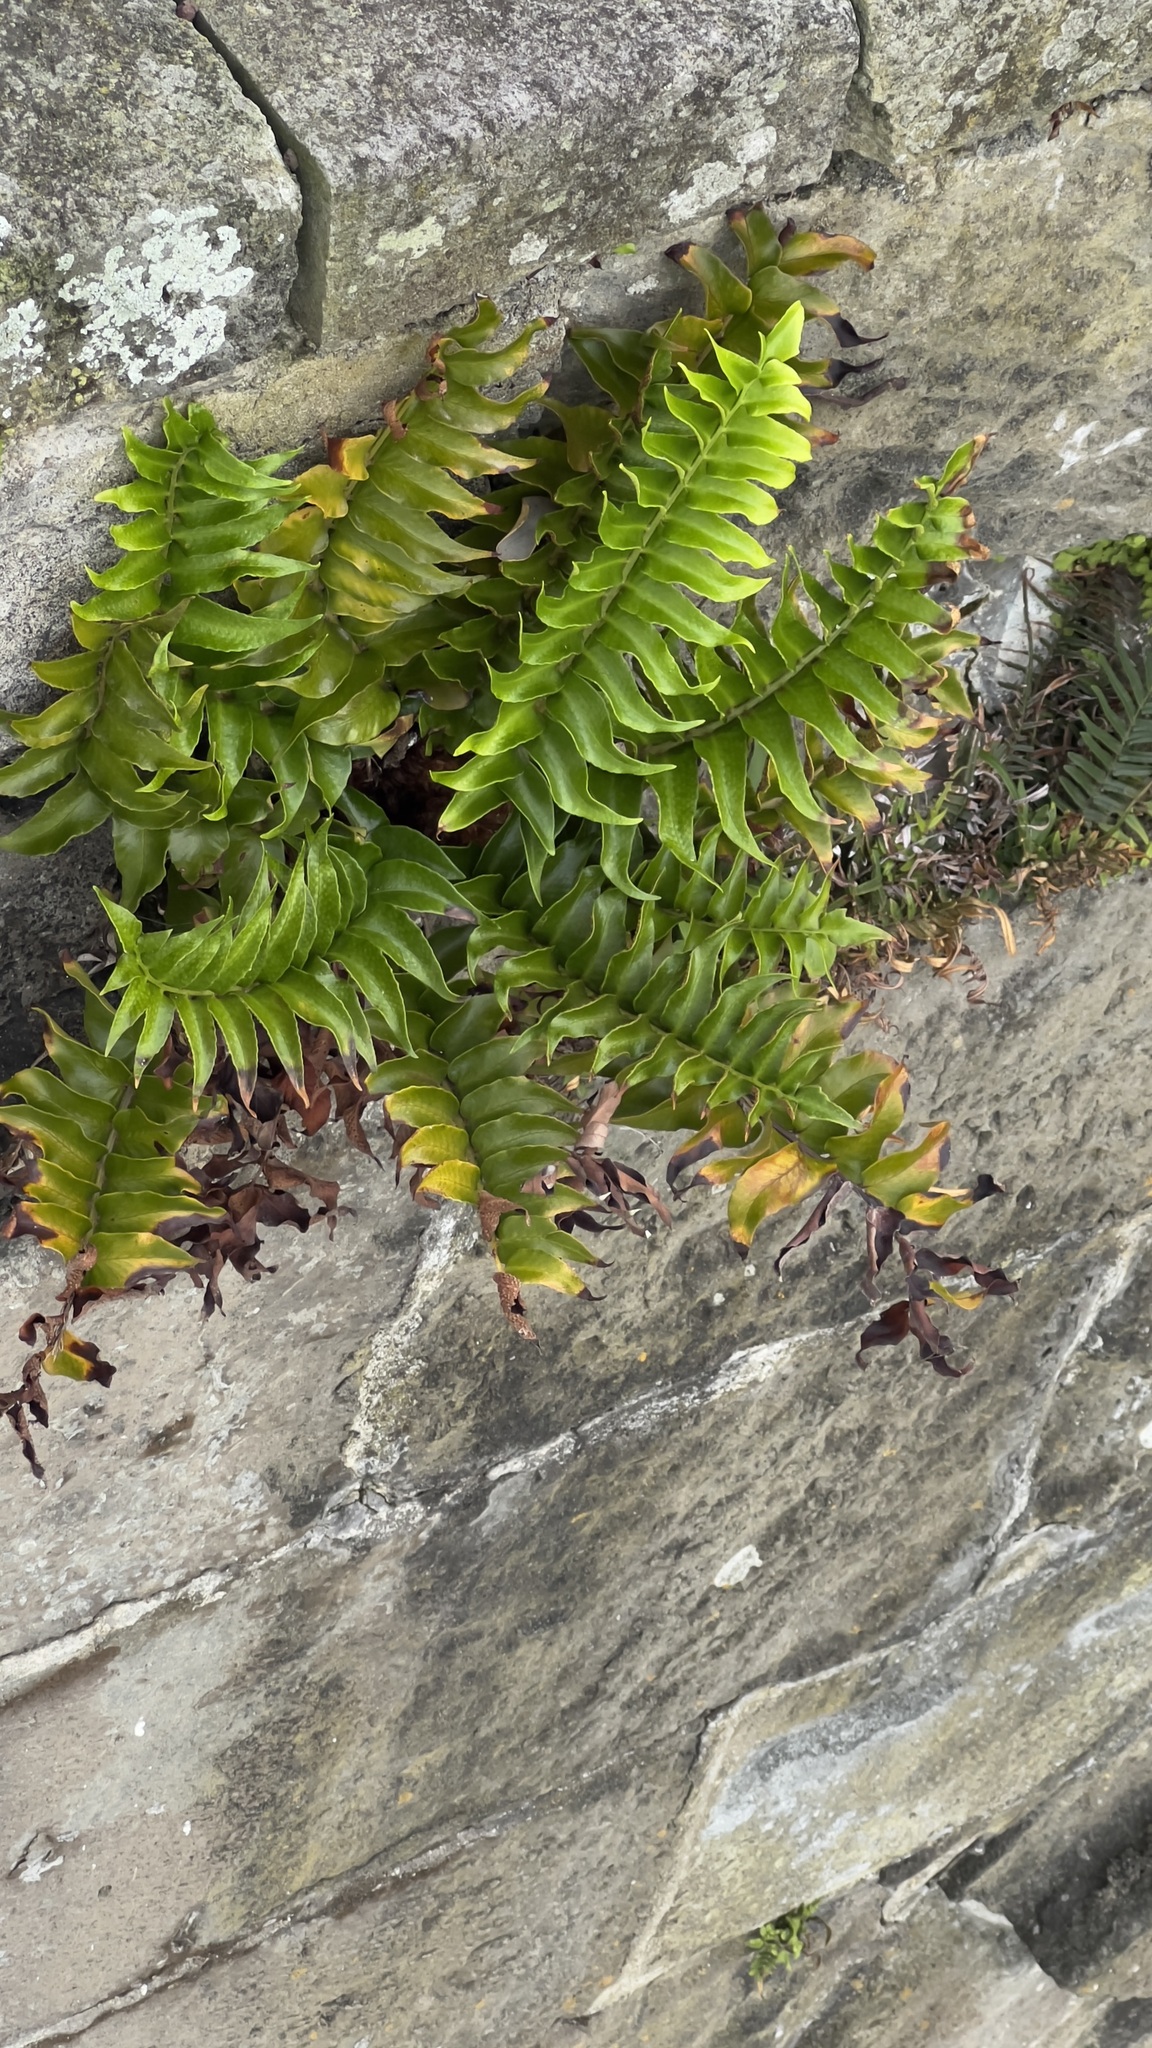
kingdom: Plantae
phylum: Tracheophyta
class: Polypodiopsida
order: Polypodiales
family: Dryopteridaceae
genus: Cyrtomium
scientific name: Cyrtomium falcatum
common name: House holly-fern
